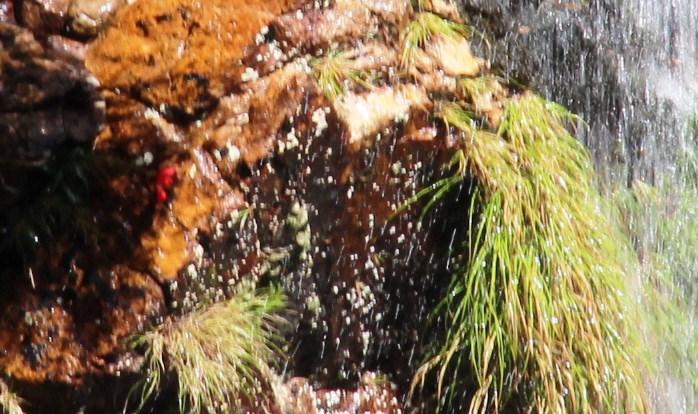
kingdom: Plantae
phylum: Tracheophyta
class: Liliopsida
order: Asparagales
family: Orchidaceae
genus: Disa
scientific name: Disa uniflora
